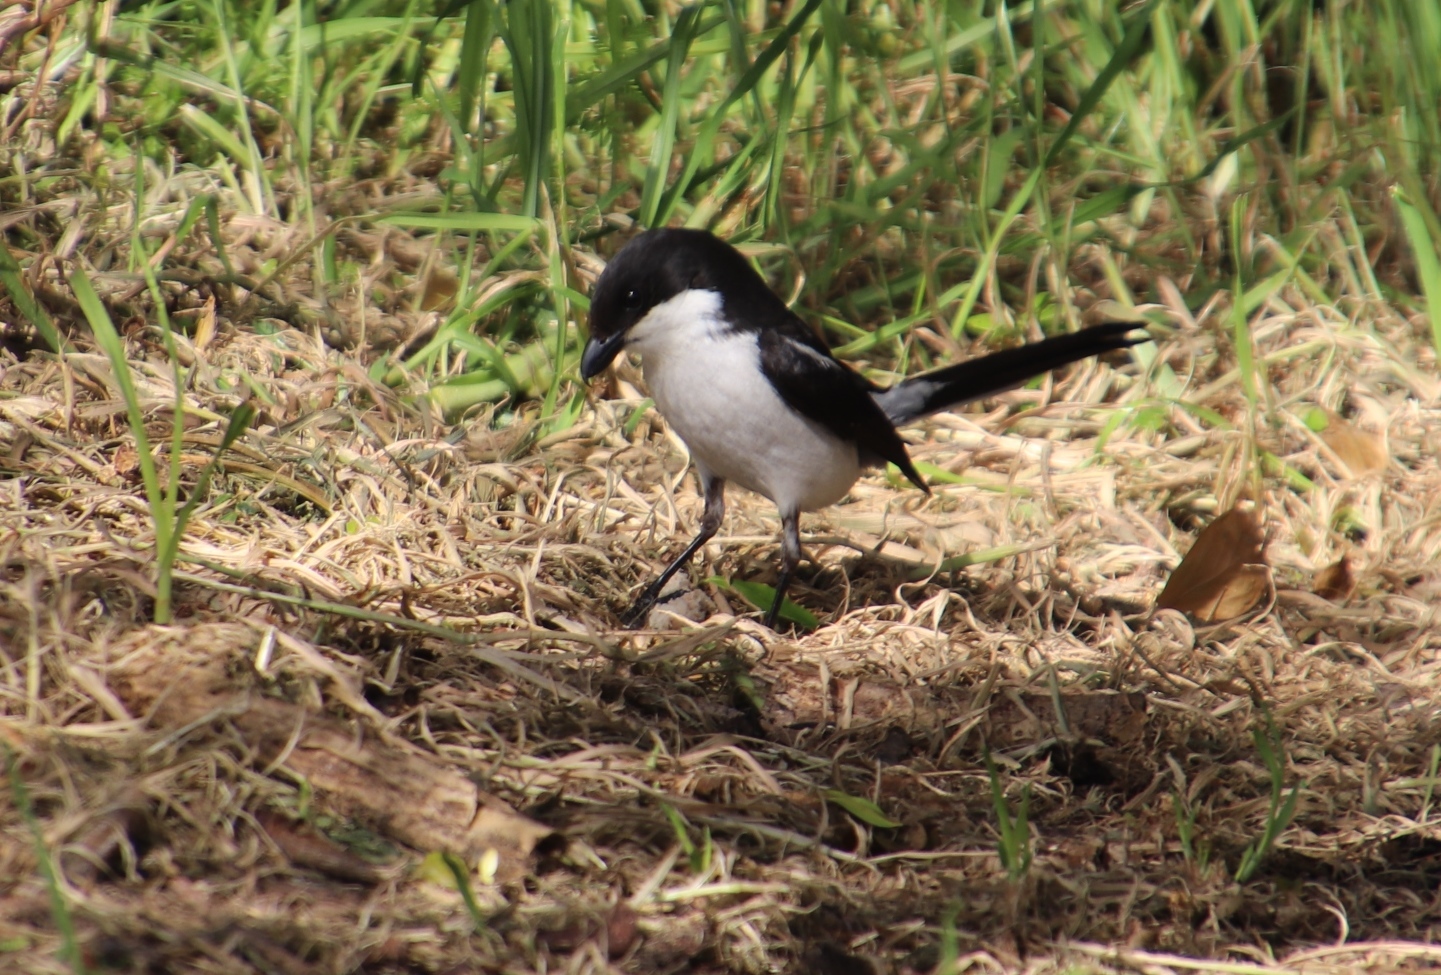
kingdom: Animalia
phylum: Chordata
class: Aves
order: Passeriformes
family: Laniidae
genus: Lanius
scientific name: Lanius collaris
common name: Southern fiscal
